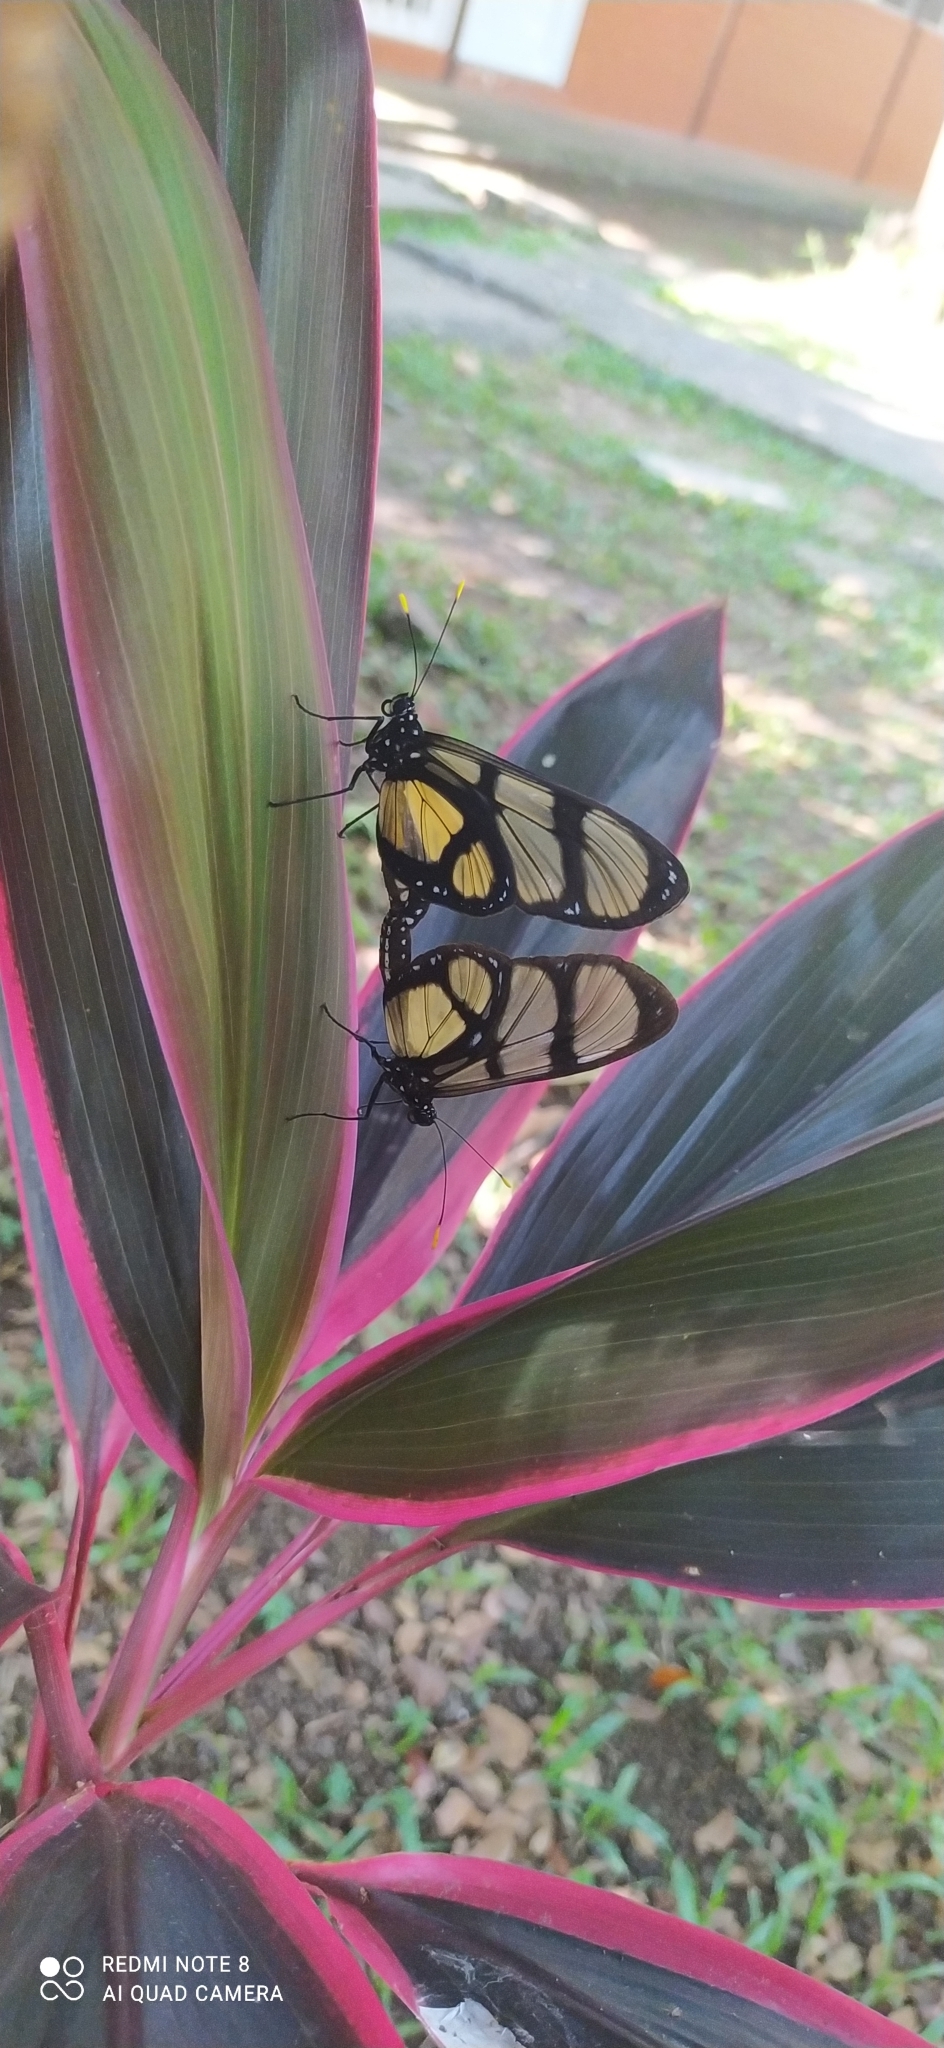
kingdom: Animalia
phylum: Arthropoda
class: Insecta
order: Lepidoptera
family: Nymphalidae
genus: Methona
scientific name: Methona confusa
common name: Confusa tigerwing
